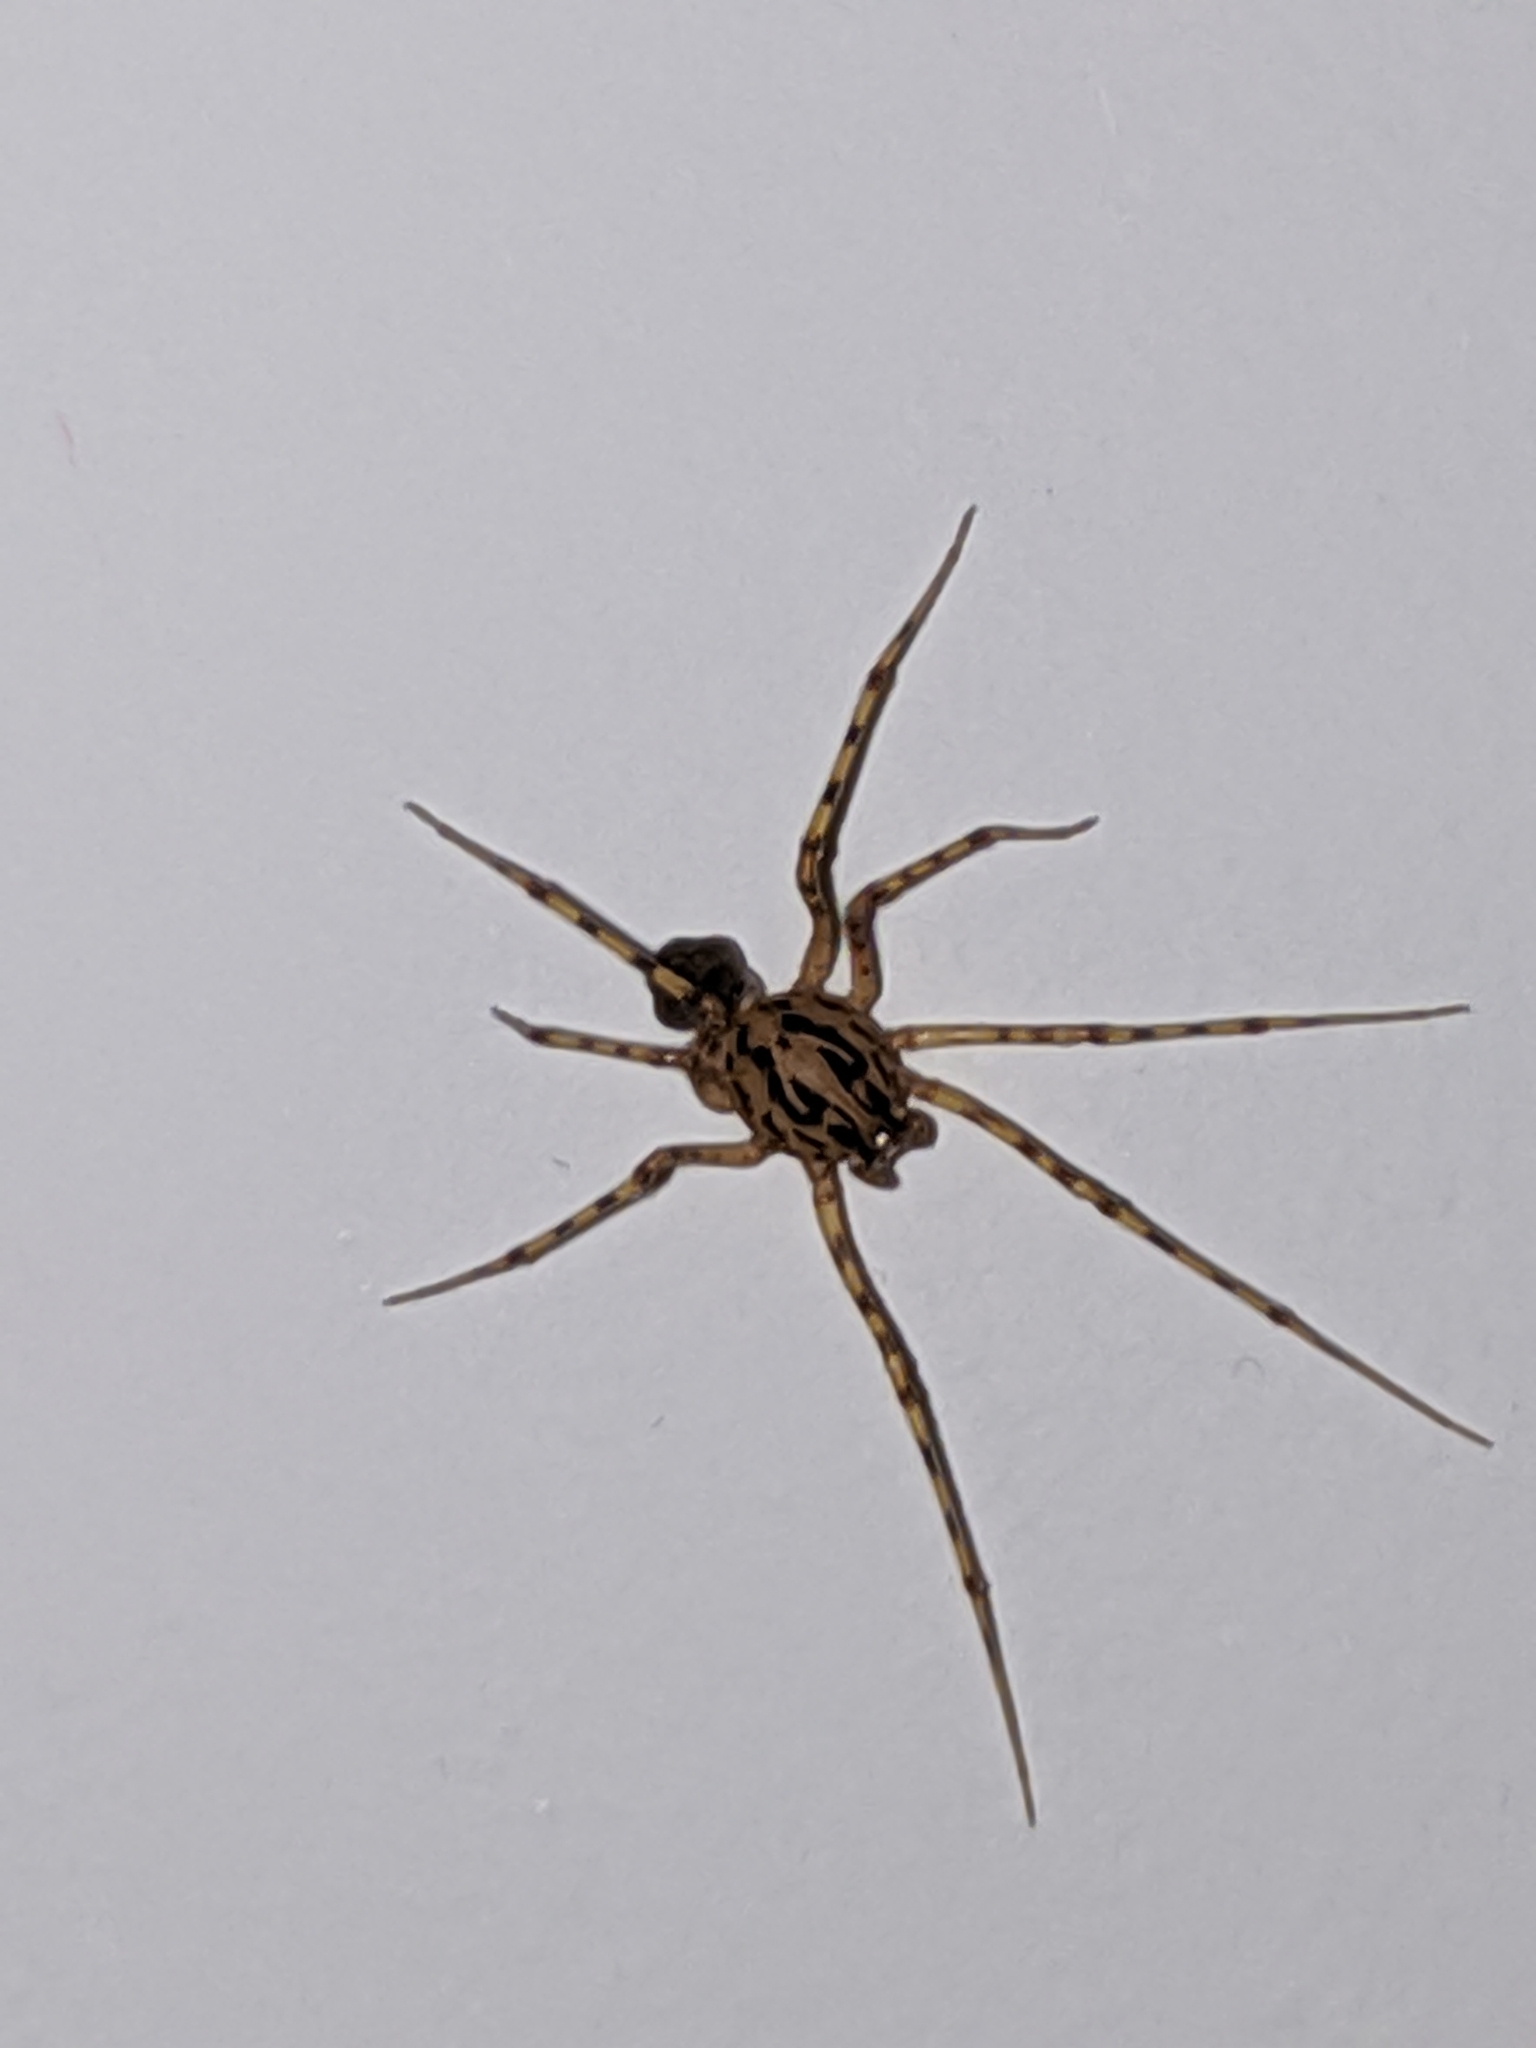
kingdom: Animalia
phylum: Arthropoda
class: Arachnida
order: Araneae
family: Scytodidae
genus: Scytodes
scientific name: Scytodes thoracica
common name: Spitting spider
